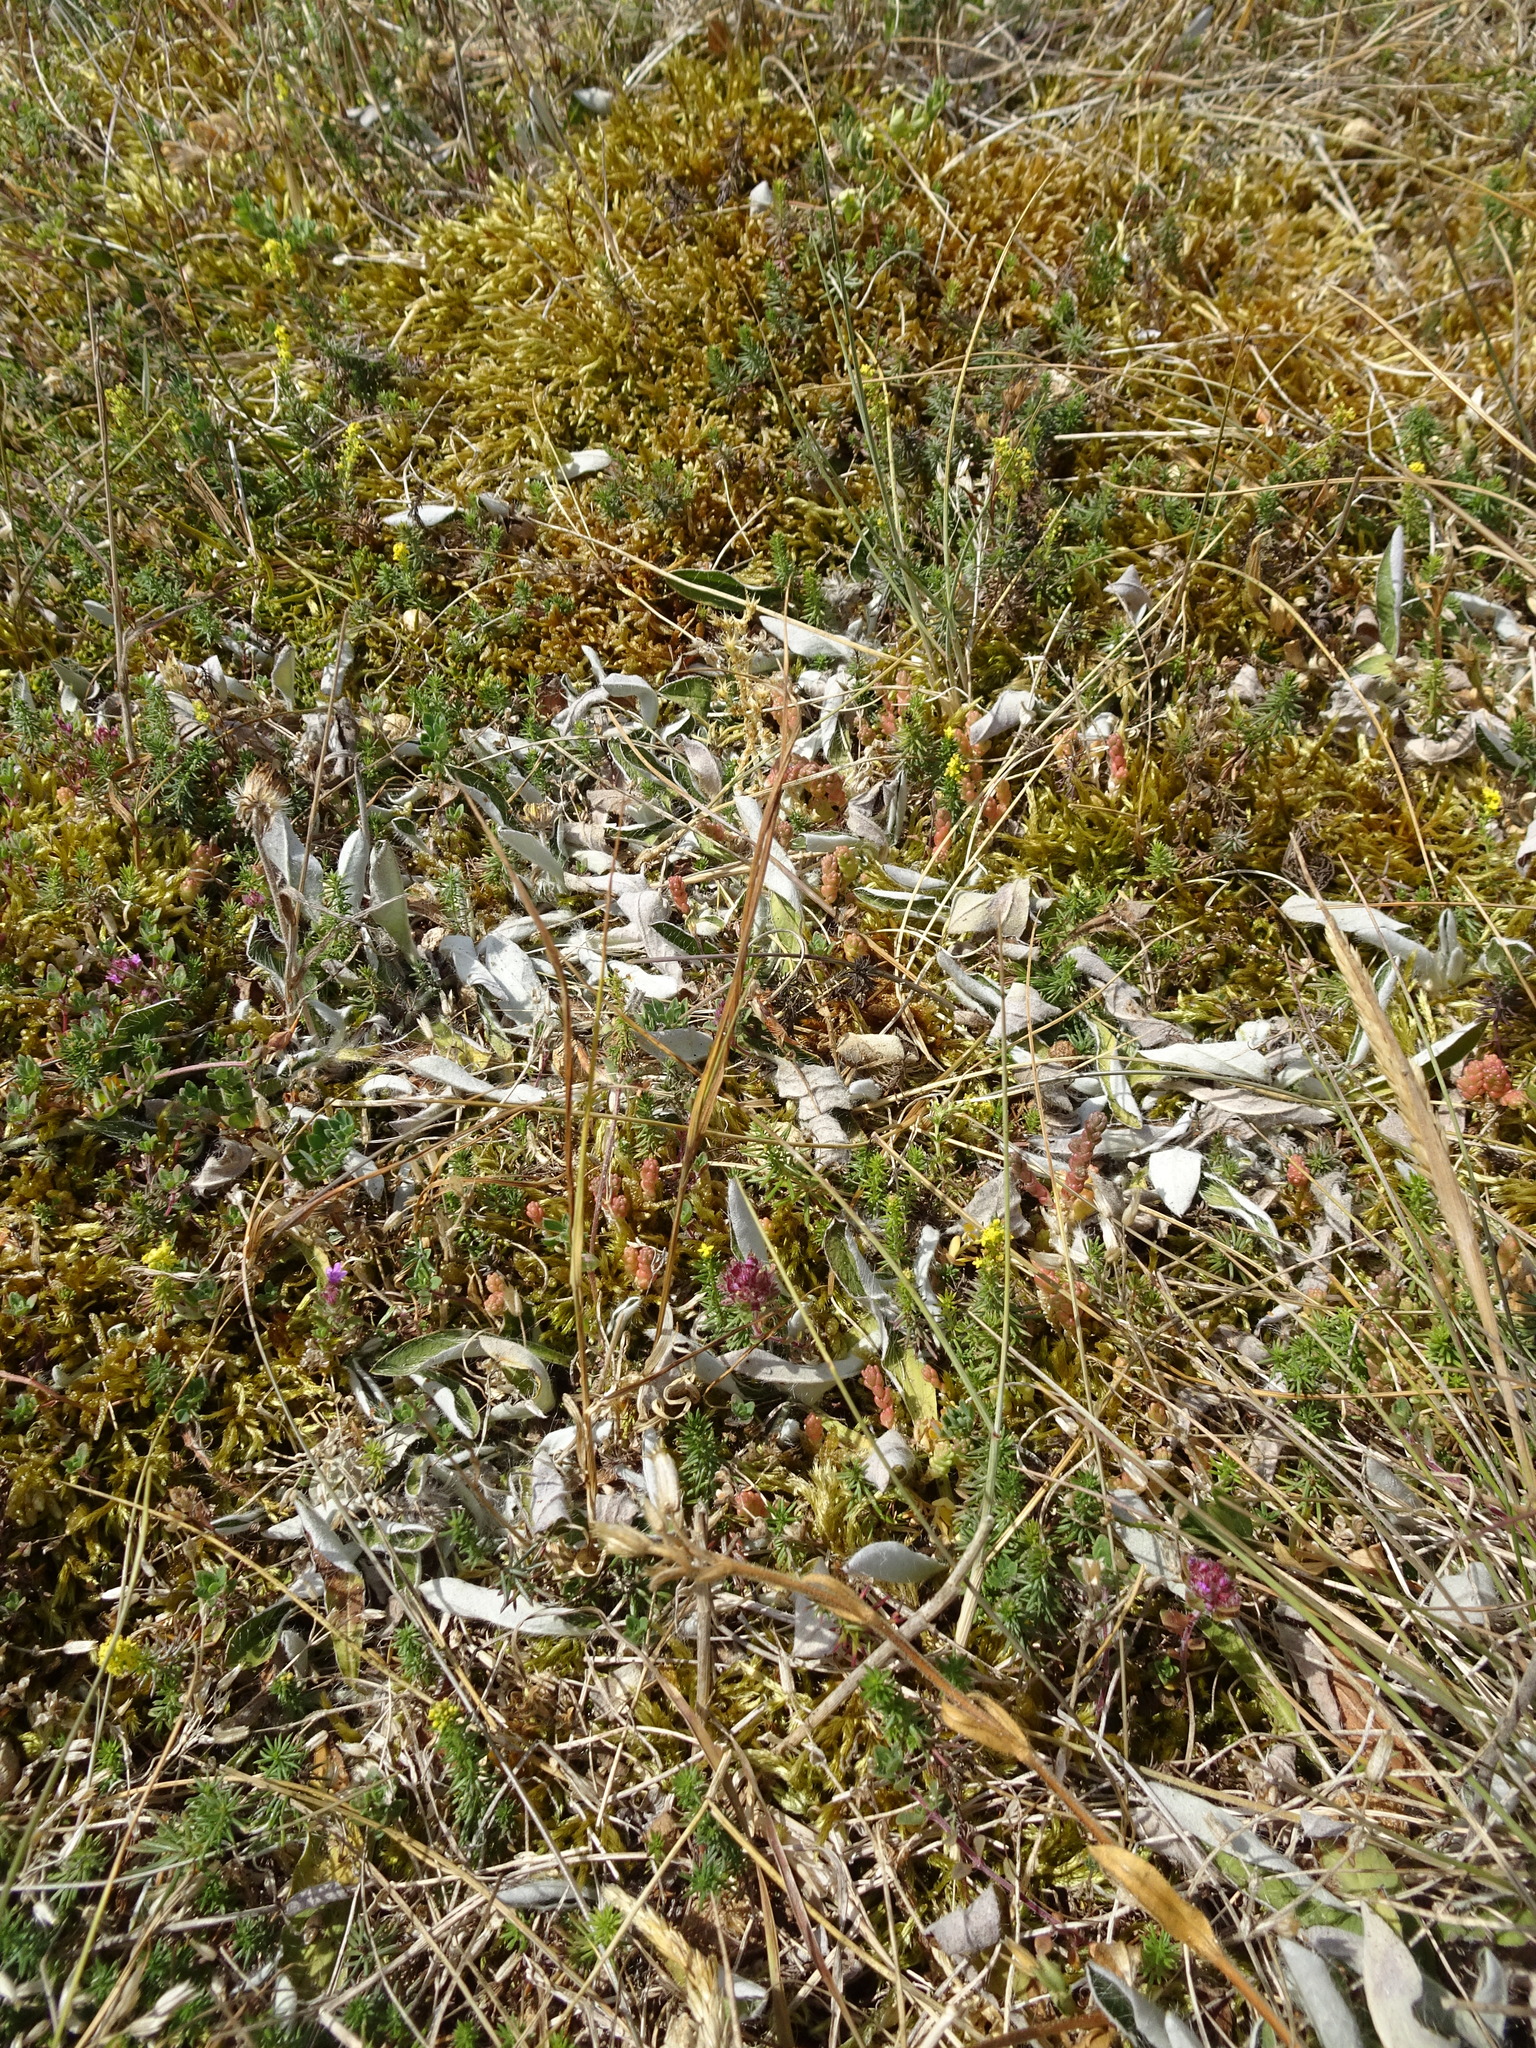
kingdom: Plantae
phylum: Tracheophyta
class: Magnoliopsida
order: Asterales
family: Asteraceae
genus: Pilosella
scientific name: Pilosella officinarum
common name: Mouse-ear hawkweed
